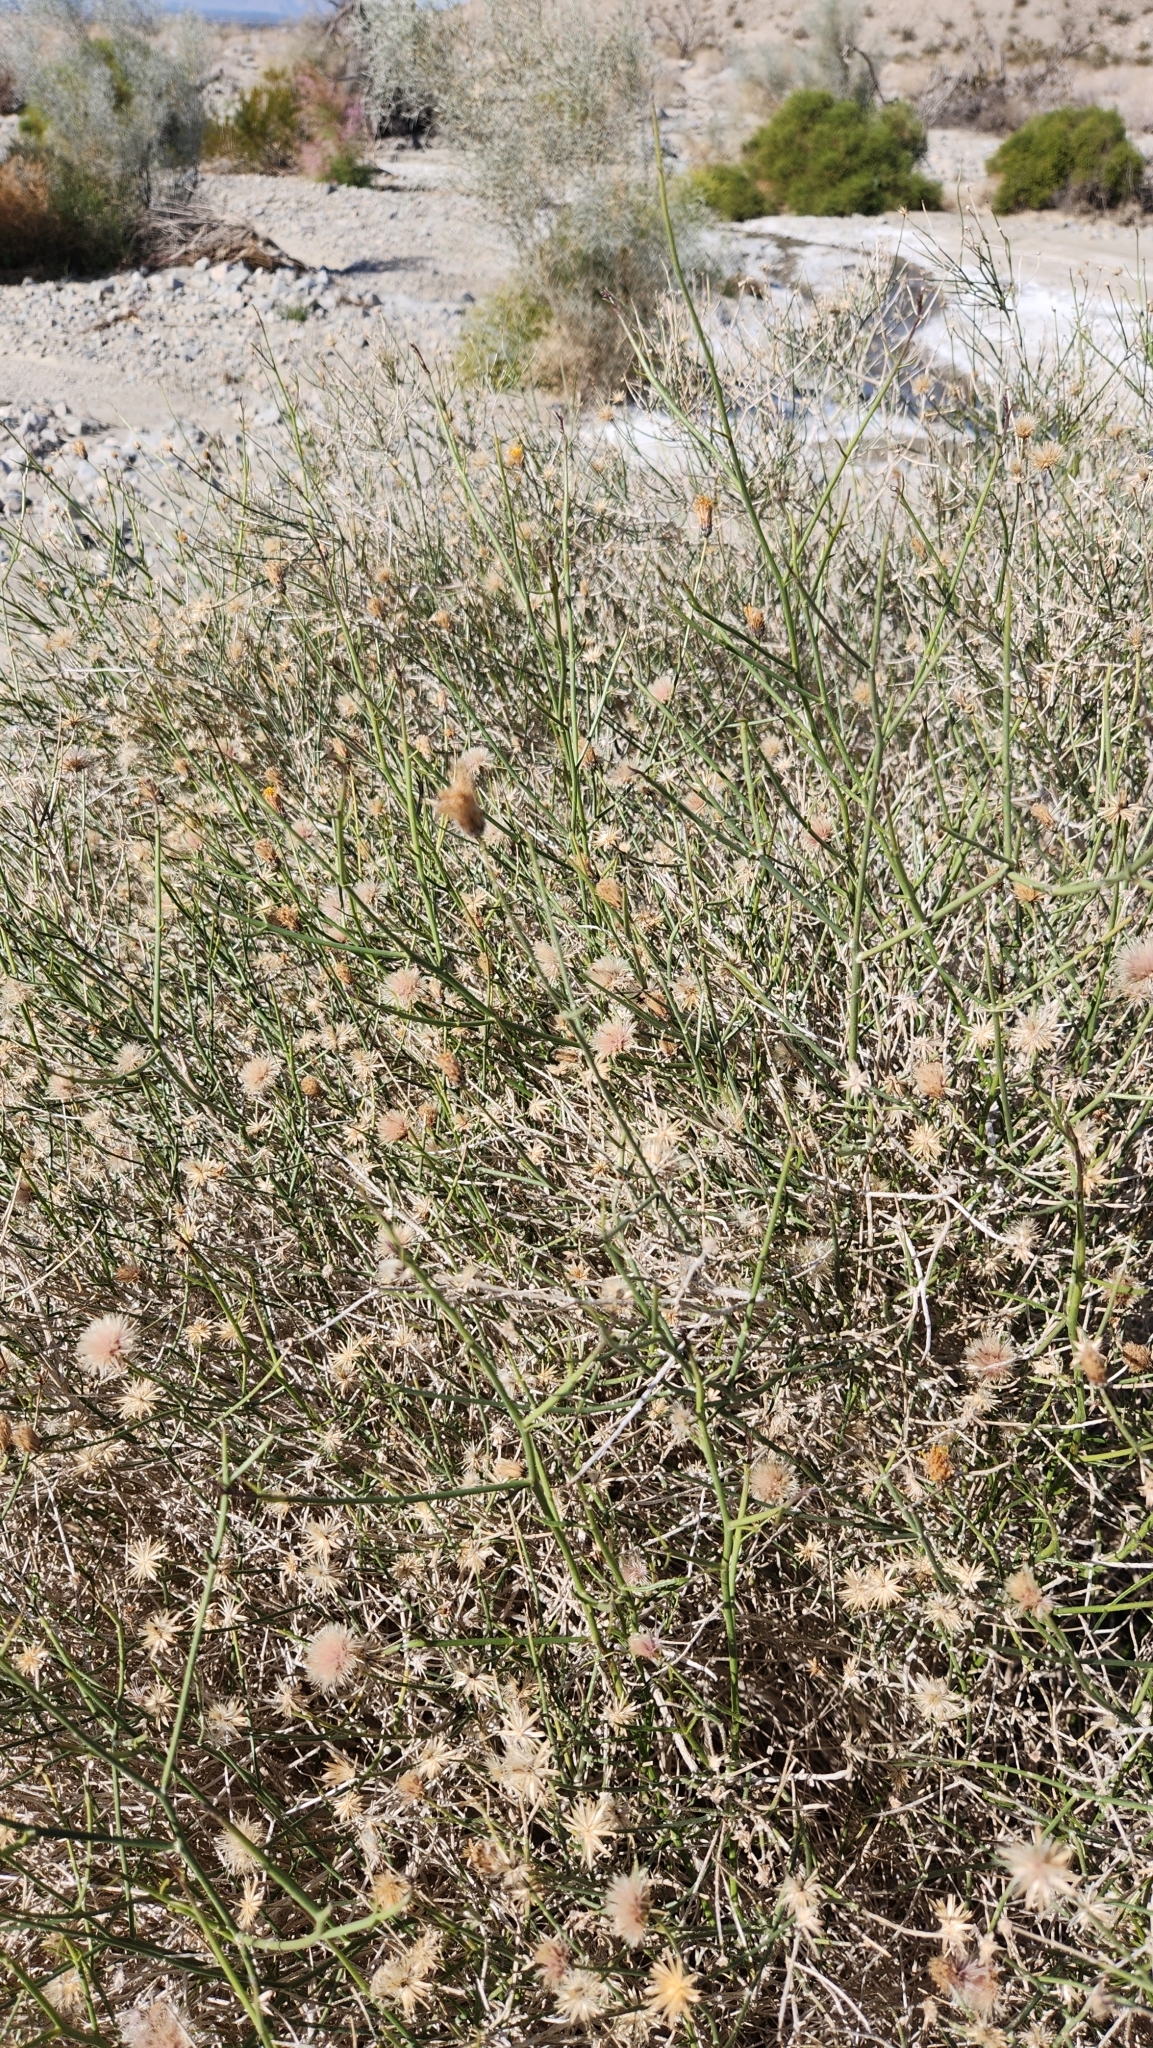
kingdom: Plantae
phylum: Tracheophyta
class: Magnoliopsida
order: Asterales
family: Asteraceae
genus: Bebbia
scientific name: Bebbia juncea
